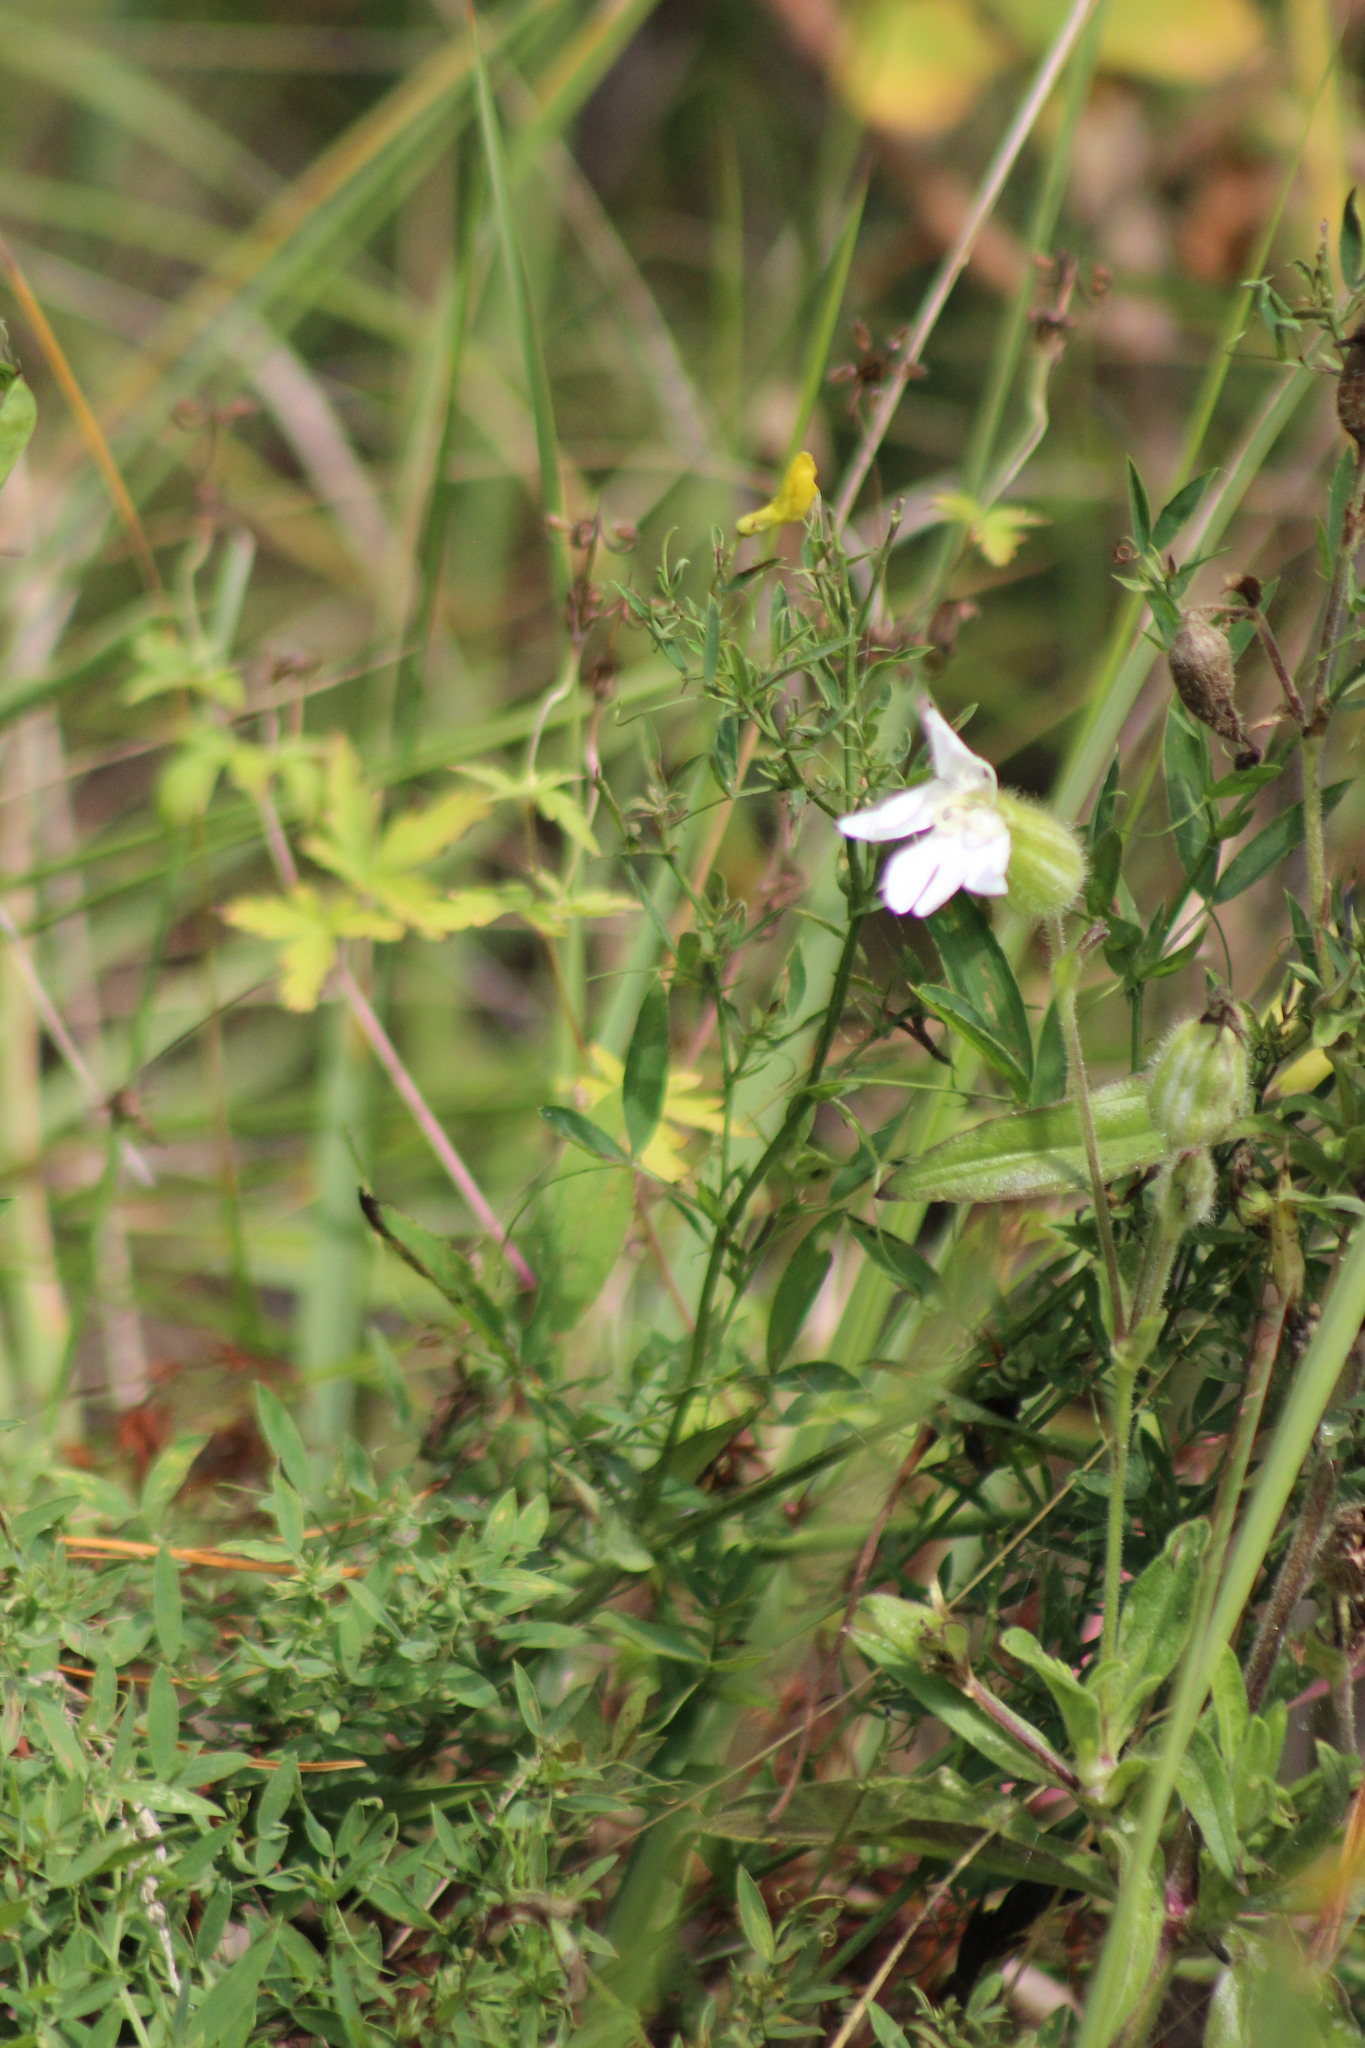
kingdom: Plantae
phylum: Tracheophyta
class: Magnoliopsida
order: Caryophyllales
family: Caryophyllaceae
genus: Silene
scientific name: Silene latifolia
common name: White campion
